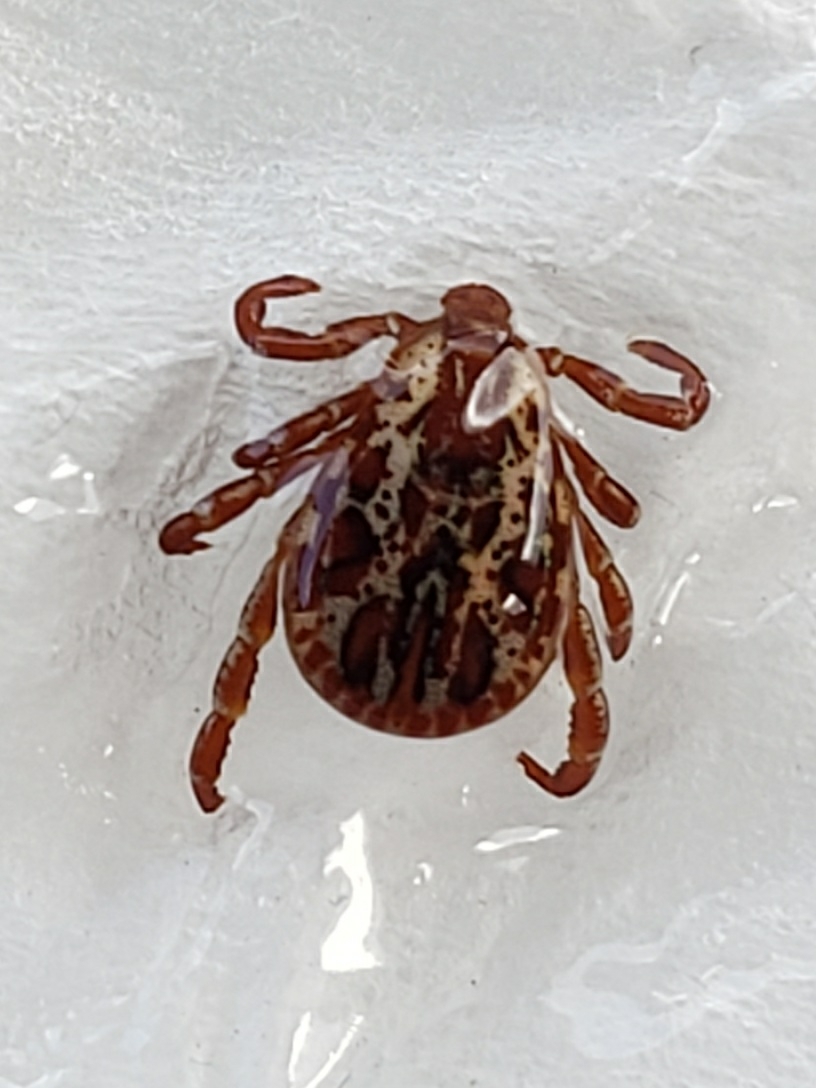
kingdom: Animalia
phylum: Arthropoda
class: Arachnida
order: Ixodida
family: Ixodidae
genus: Dermacentor
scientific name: Dermacentor variabilis
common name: American dog tick
